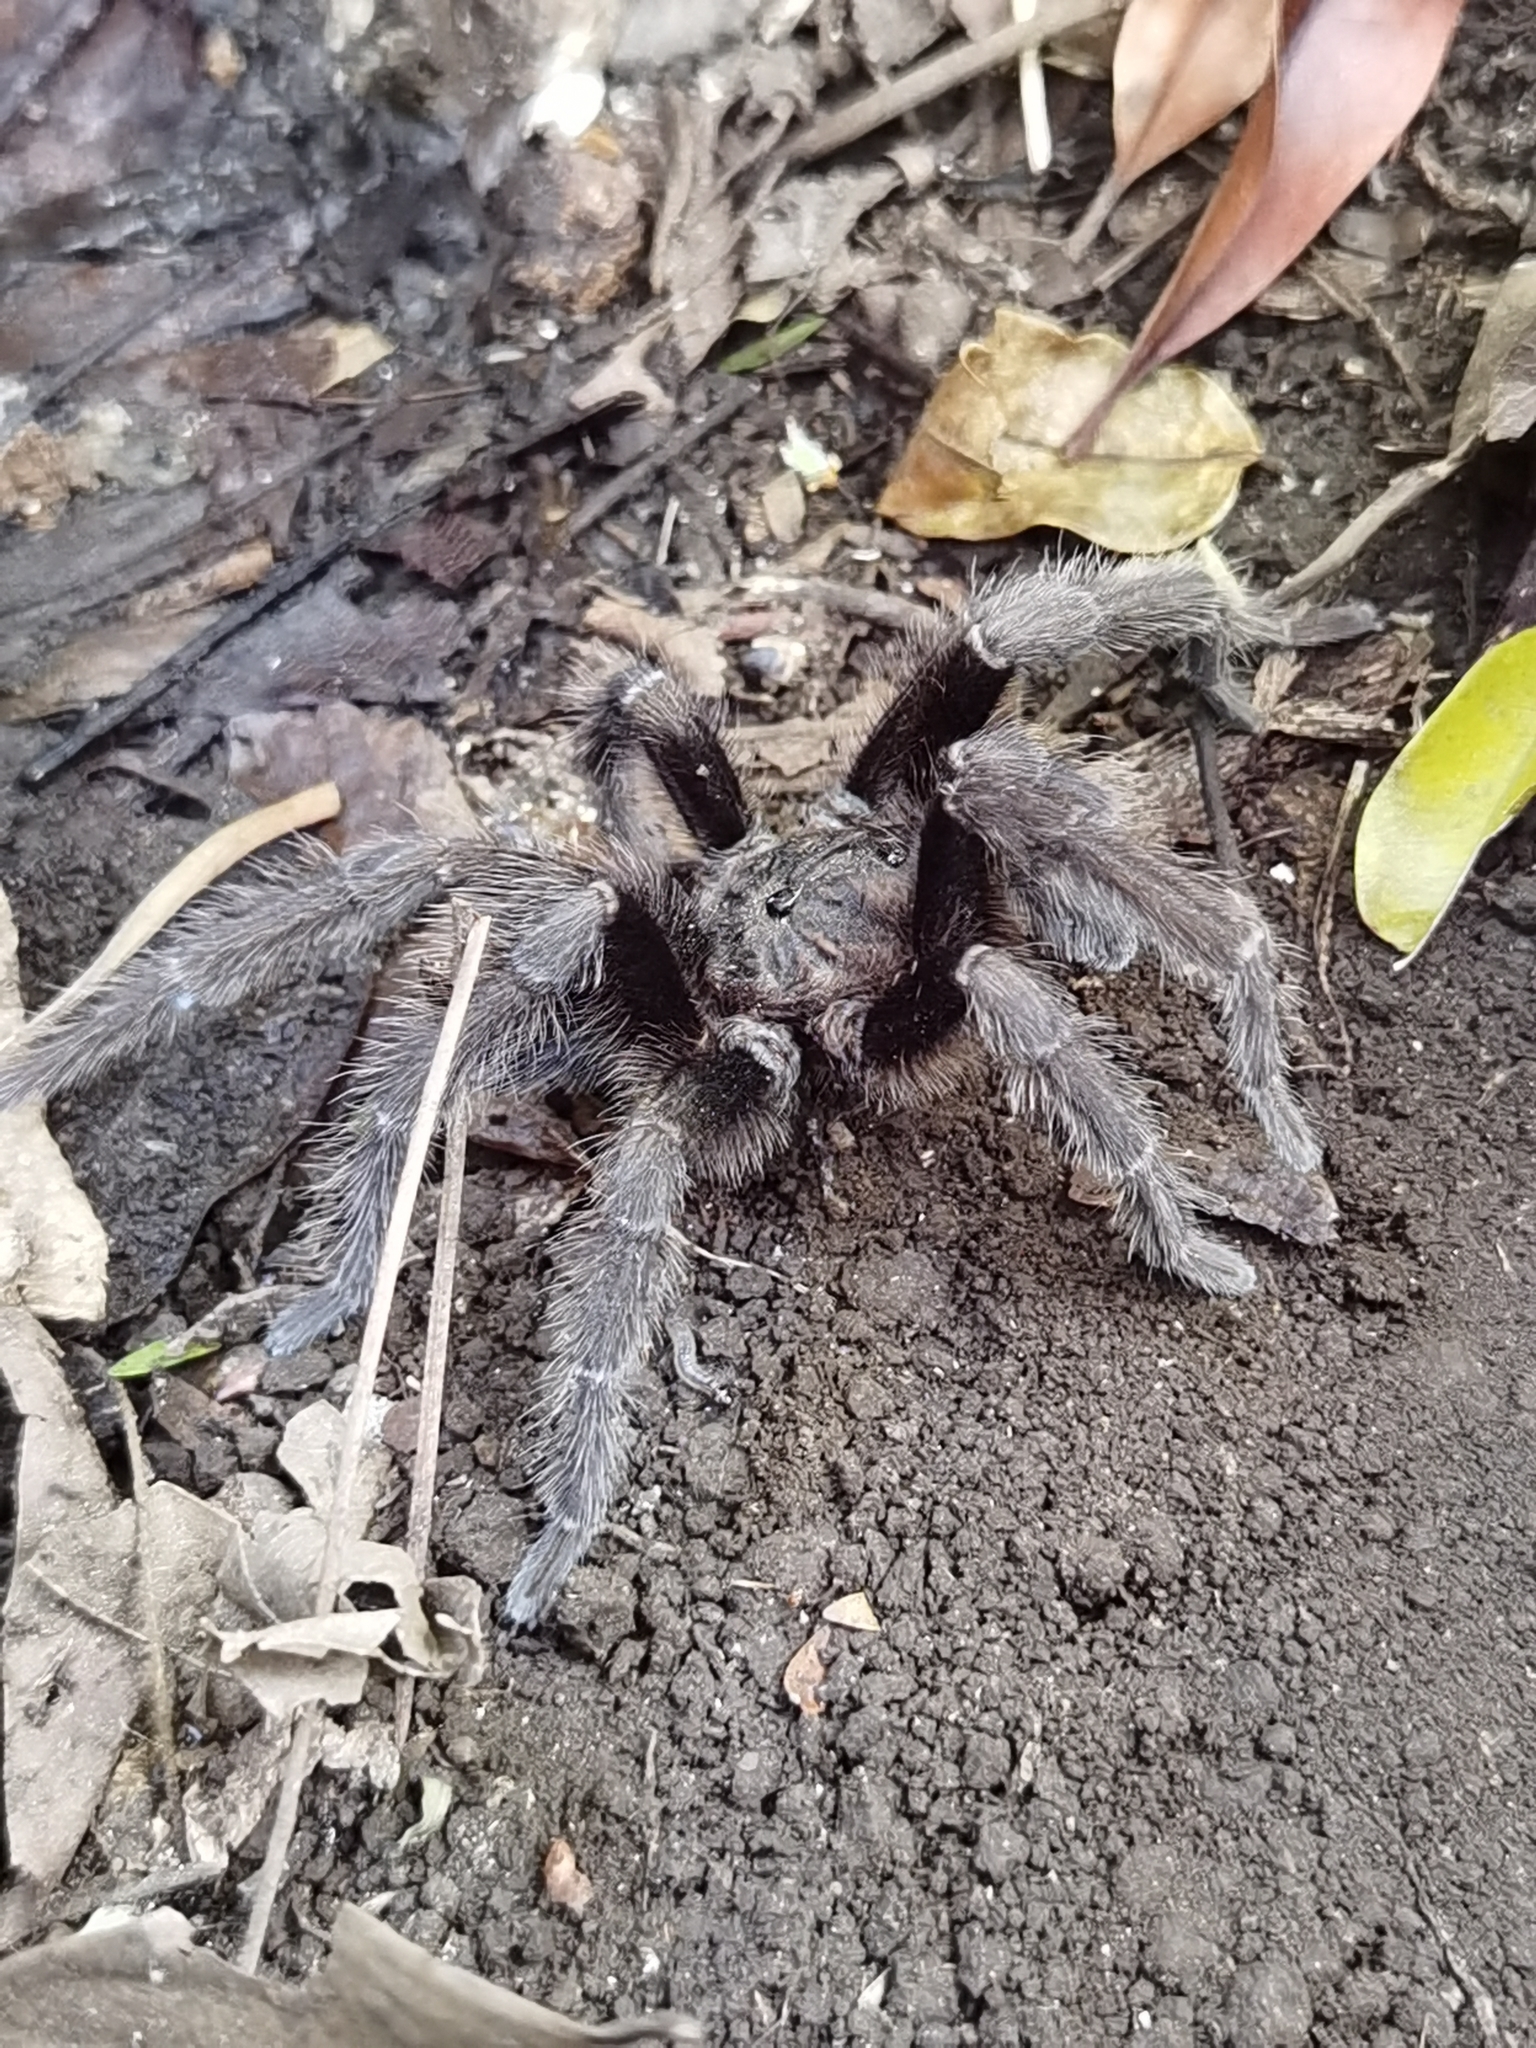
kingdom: Animalia
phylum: Arthropoda
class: Arachnida
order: Araneae
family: Theraphosidae
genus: Sphaerobothria
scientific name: Sphaerobothria hoffmanni
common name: Tarantula spiders
